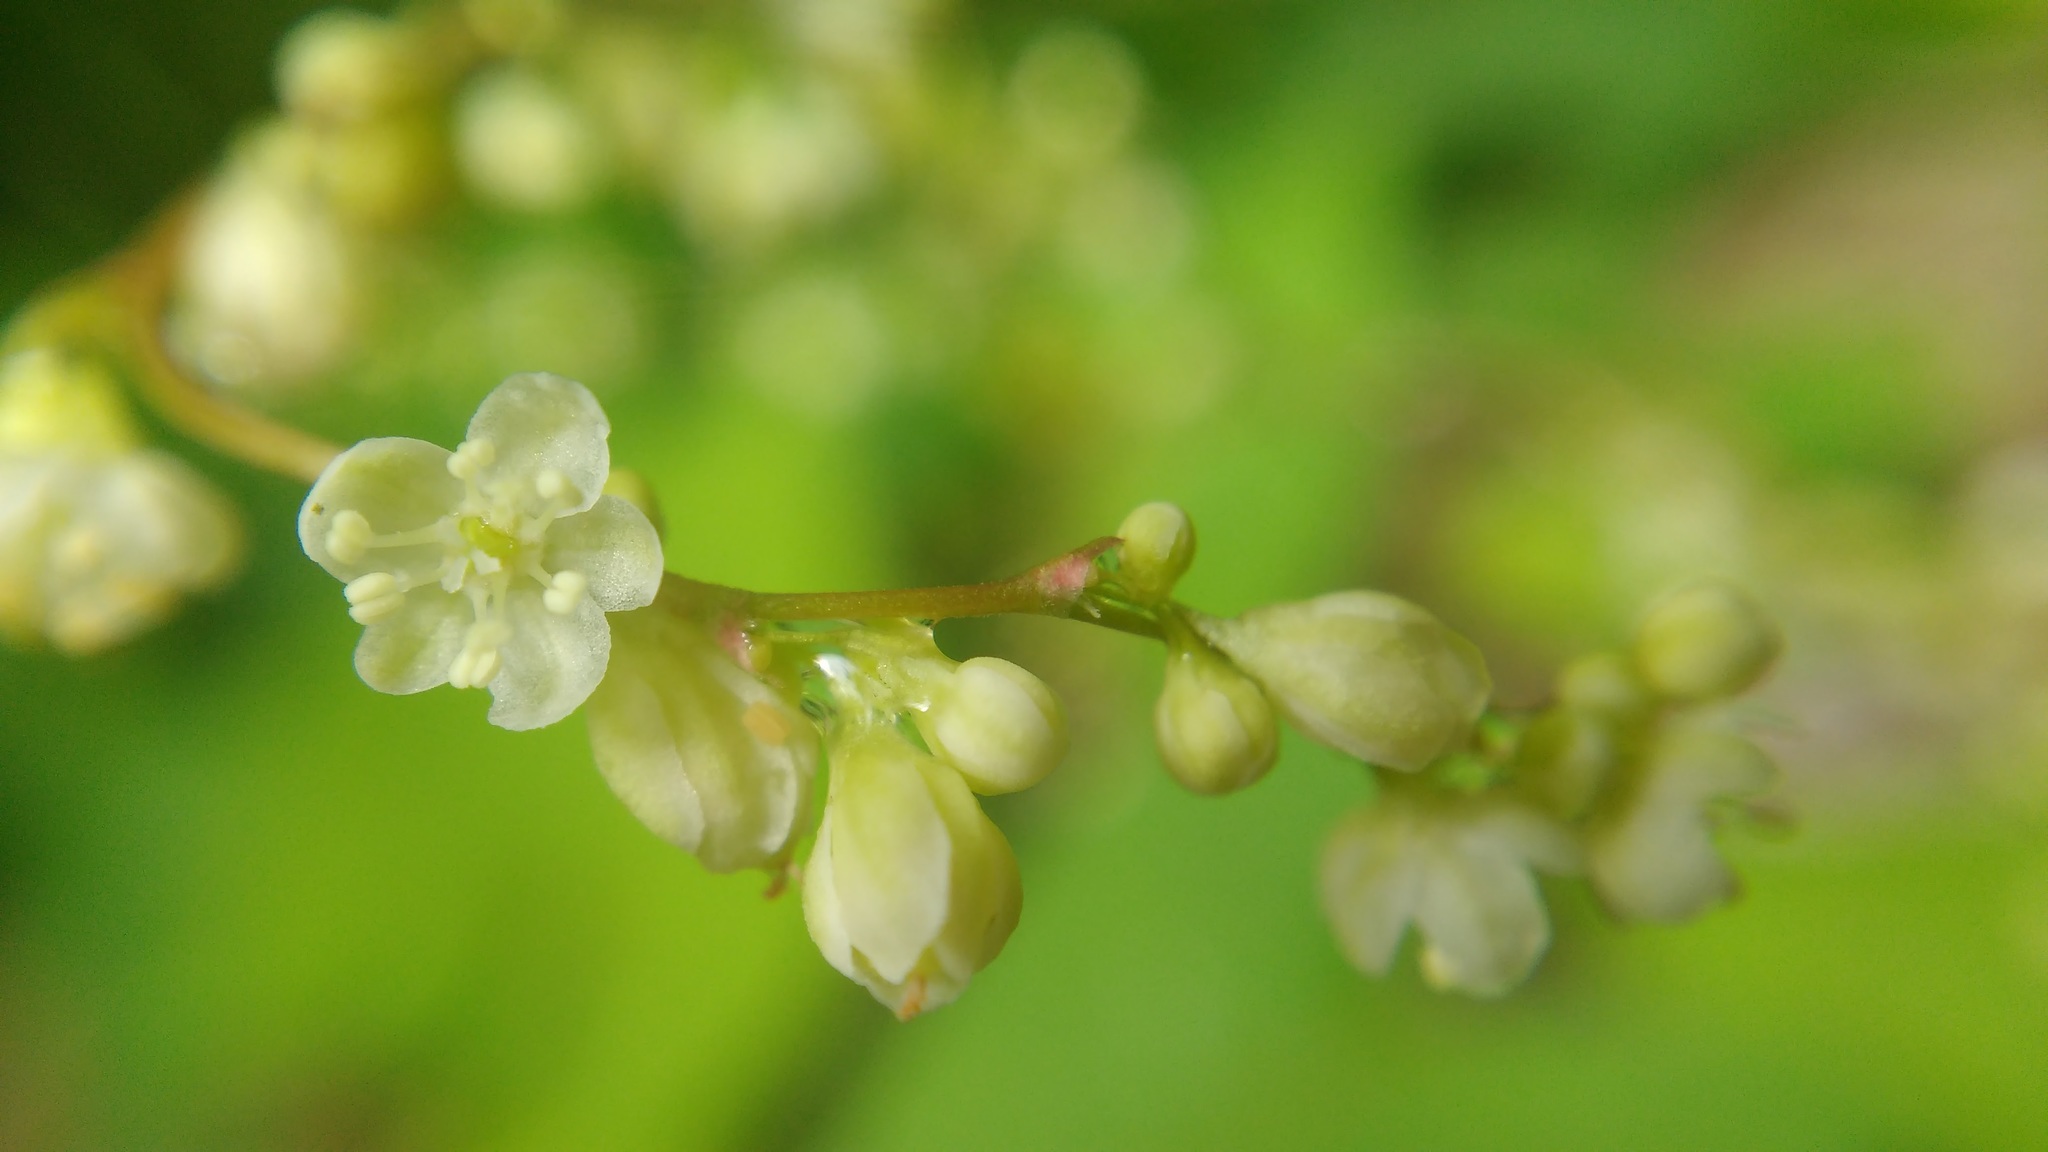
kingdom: Plantae
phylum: Tracheophyta
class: Magnoliopsida
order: Caryophyllales
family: Polygonaceae
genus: Parogonum
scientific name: Parogonum ciliinode
